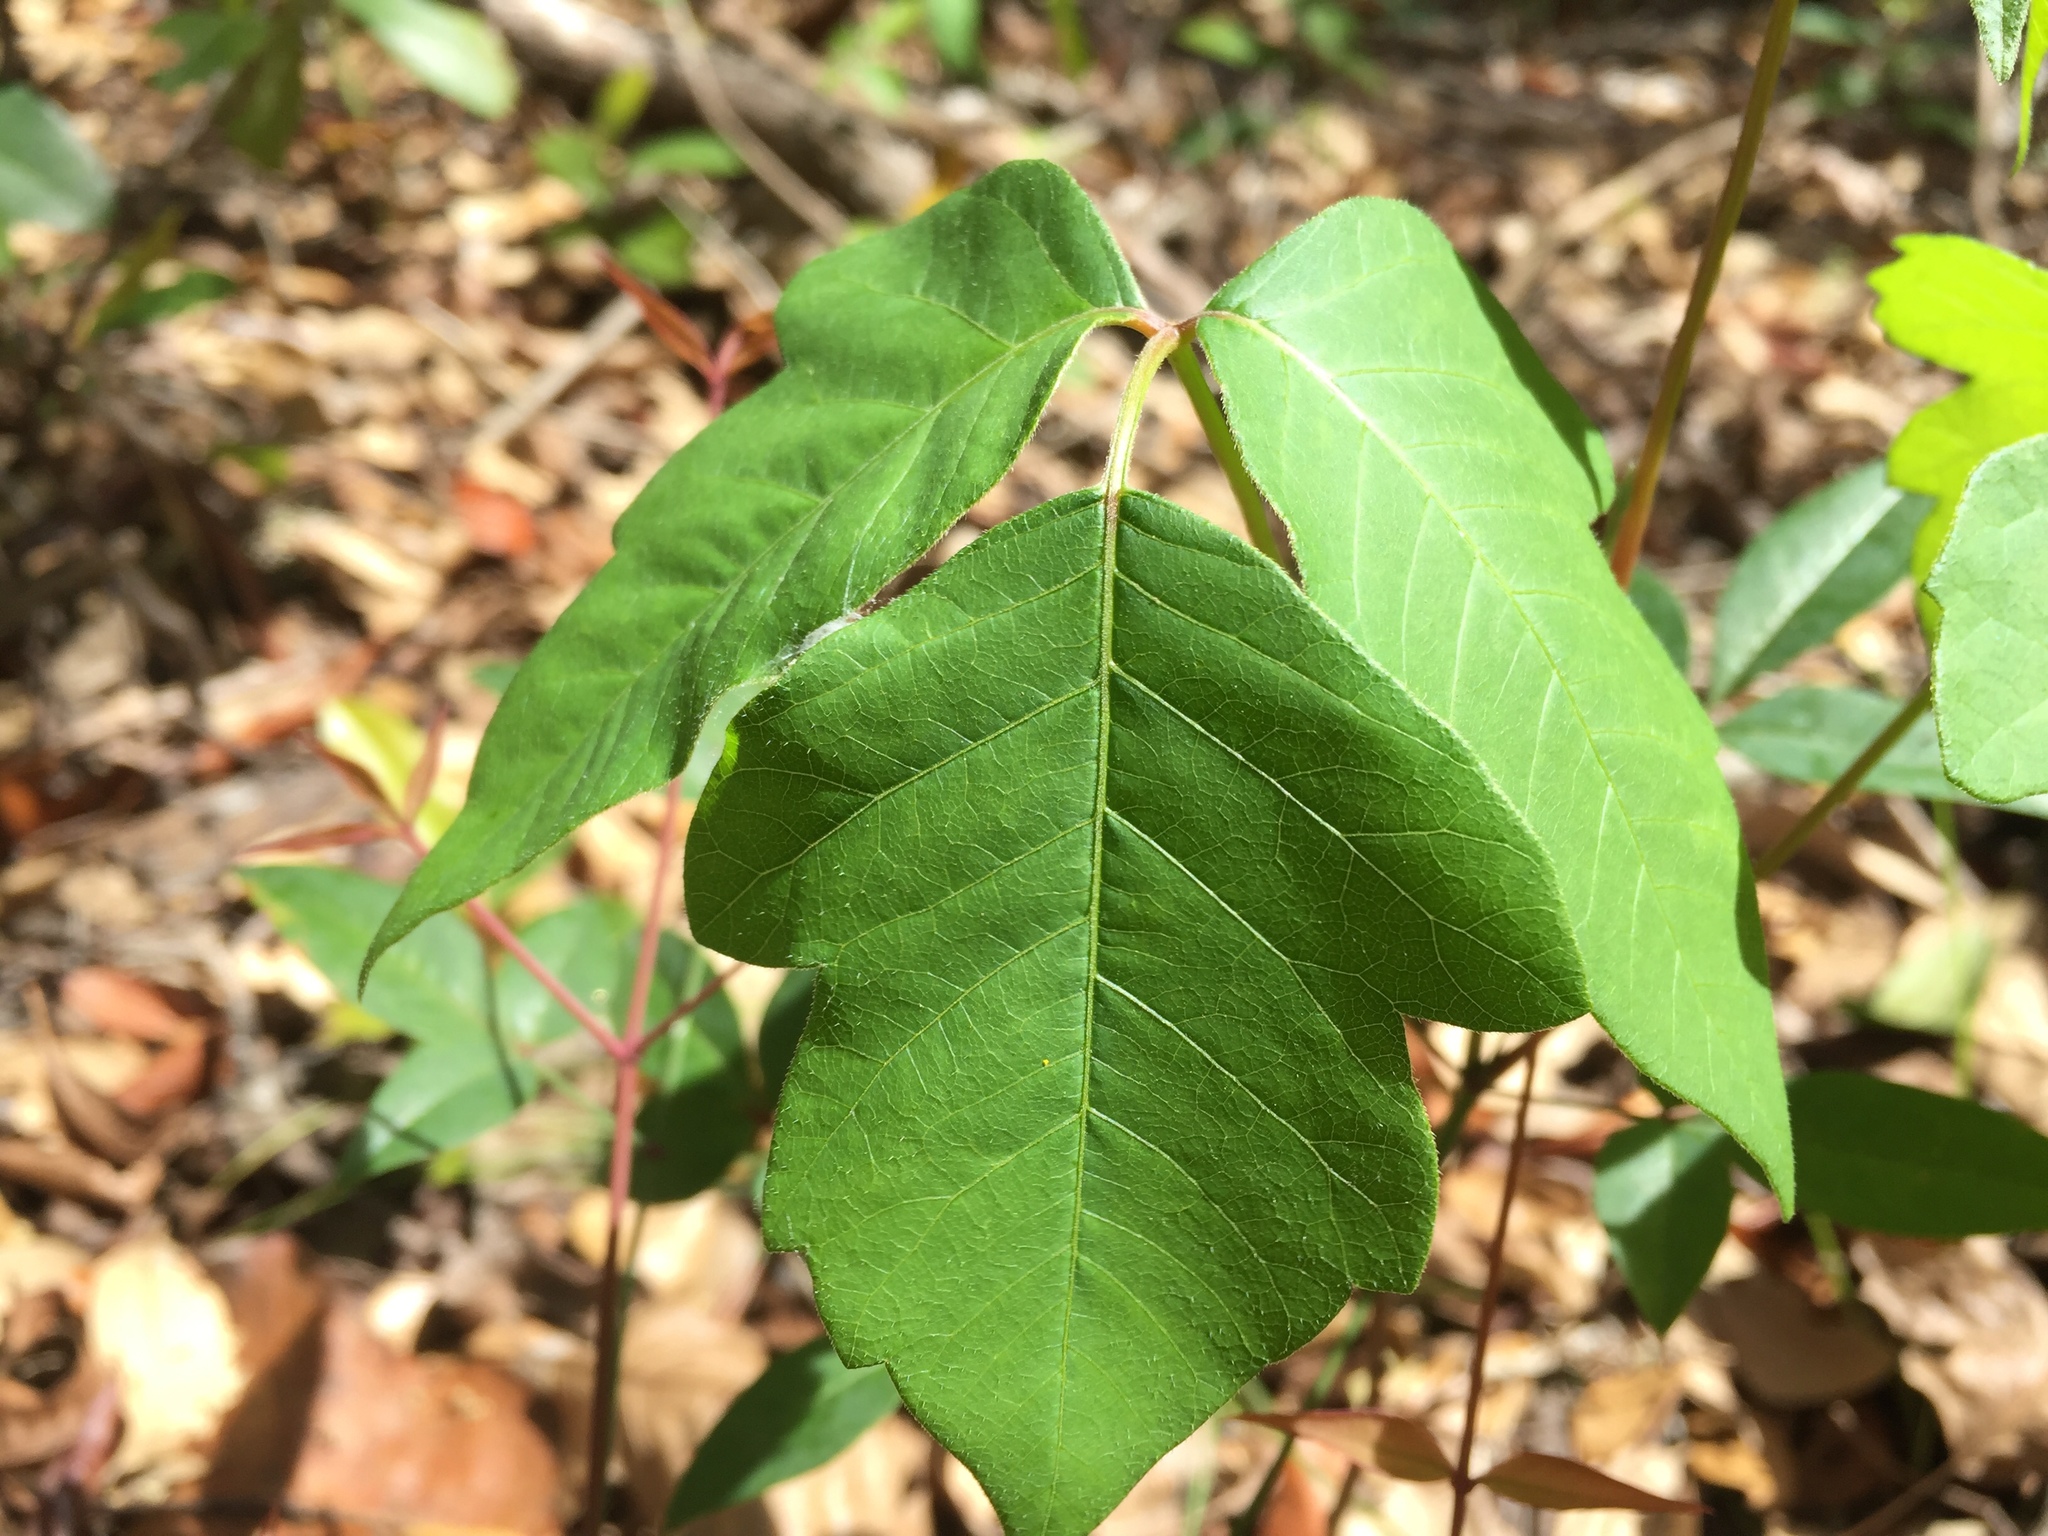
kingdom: Plantae
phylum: Tracheophyta
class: Magnoliopsida
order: Sapindales
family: Anacardiaceae
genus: Toxicodendron
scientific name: Toxicodendron radicans
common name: Poison ivy
